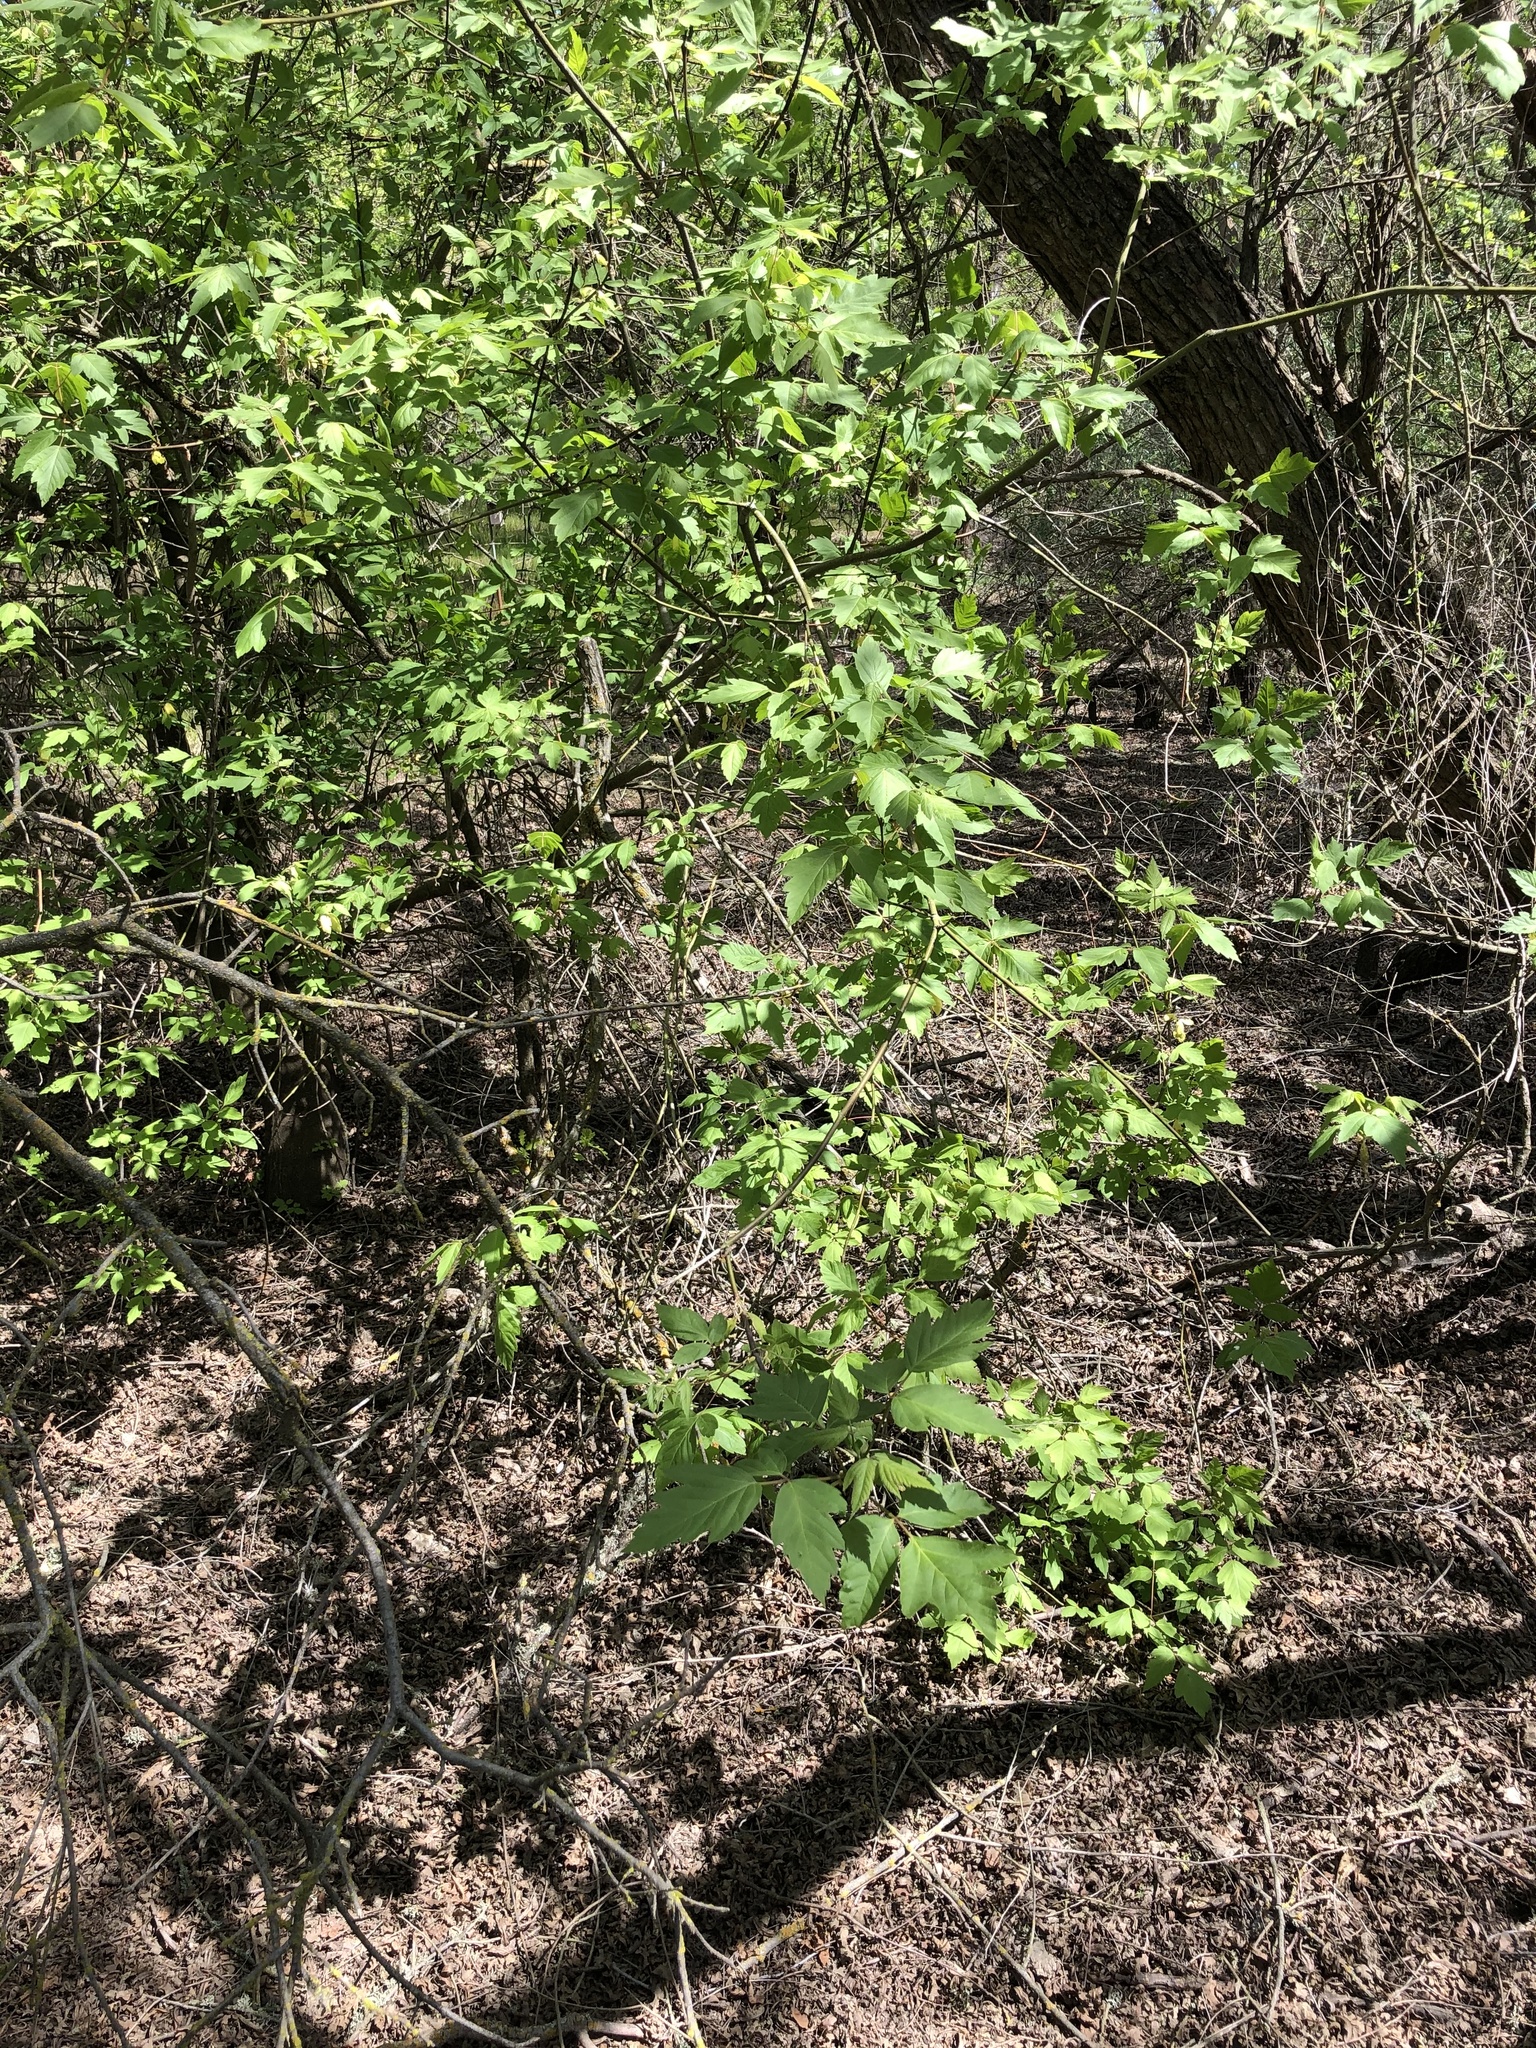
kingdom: Plantae
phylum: Tracheophyta
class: Magnoliopsida
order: Sapindales
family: Sapindaceae
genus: Acer
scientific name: Acer negundo
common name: Ashleaf maple
